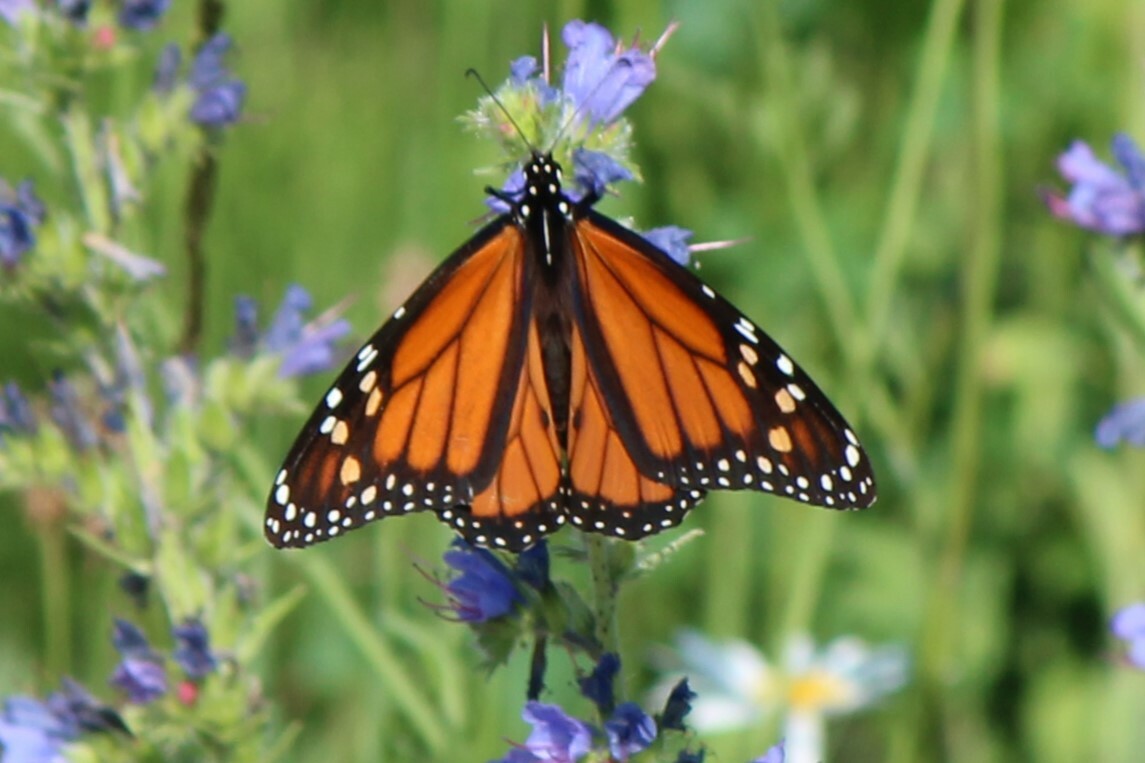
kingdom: Animalia
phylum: Arthropoda
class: Insecta
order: Lepidoptera
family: Nymphalidae
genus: Danaus
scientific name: Danaus plexippus
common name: Monarch
